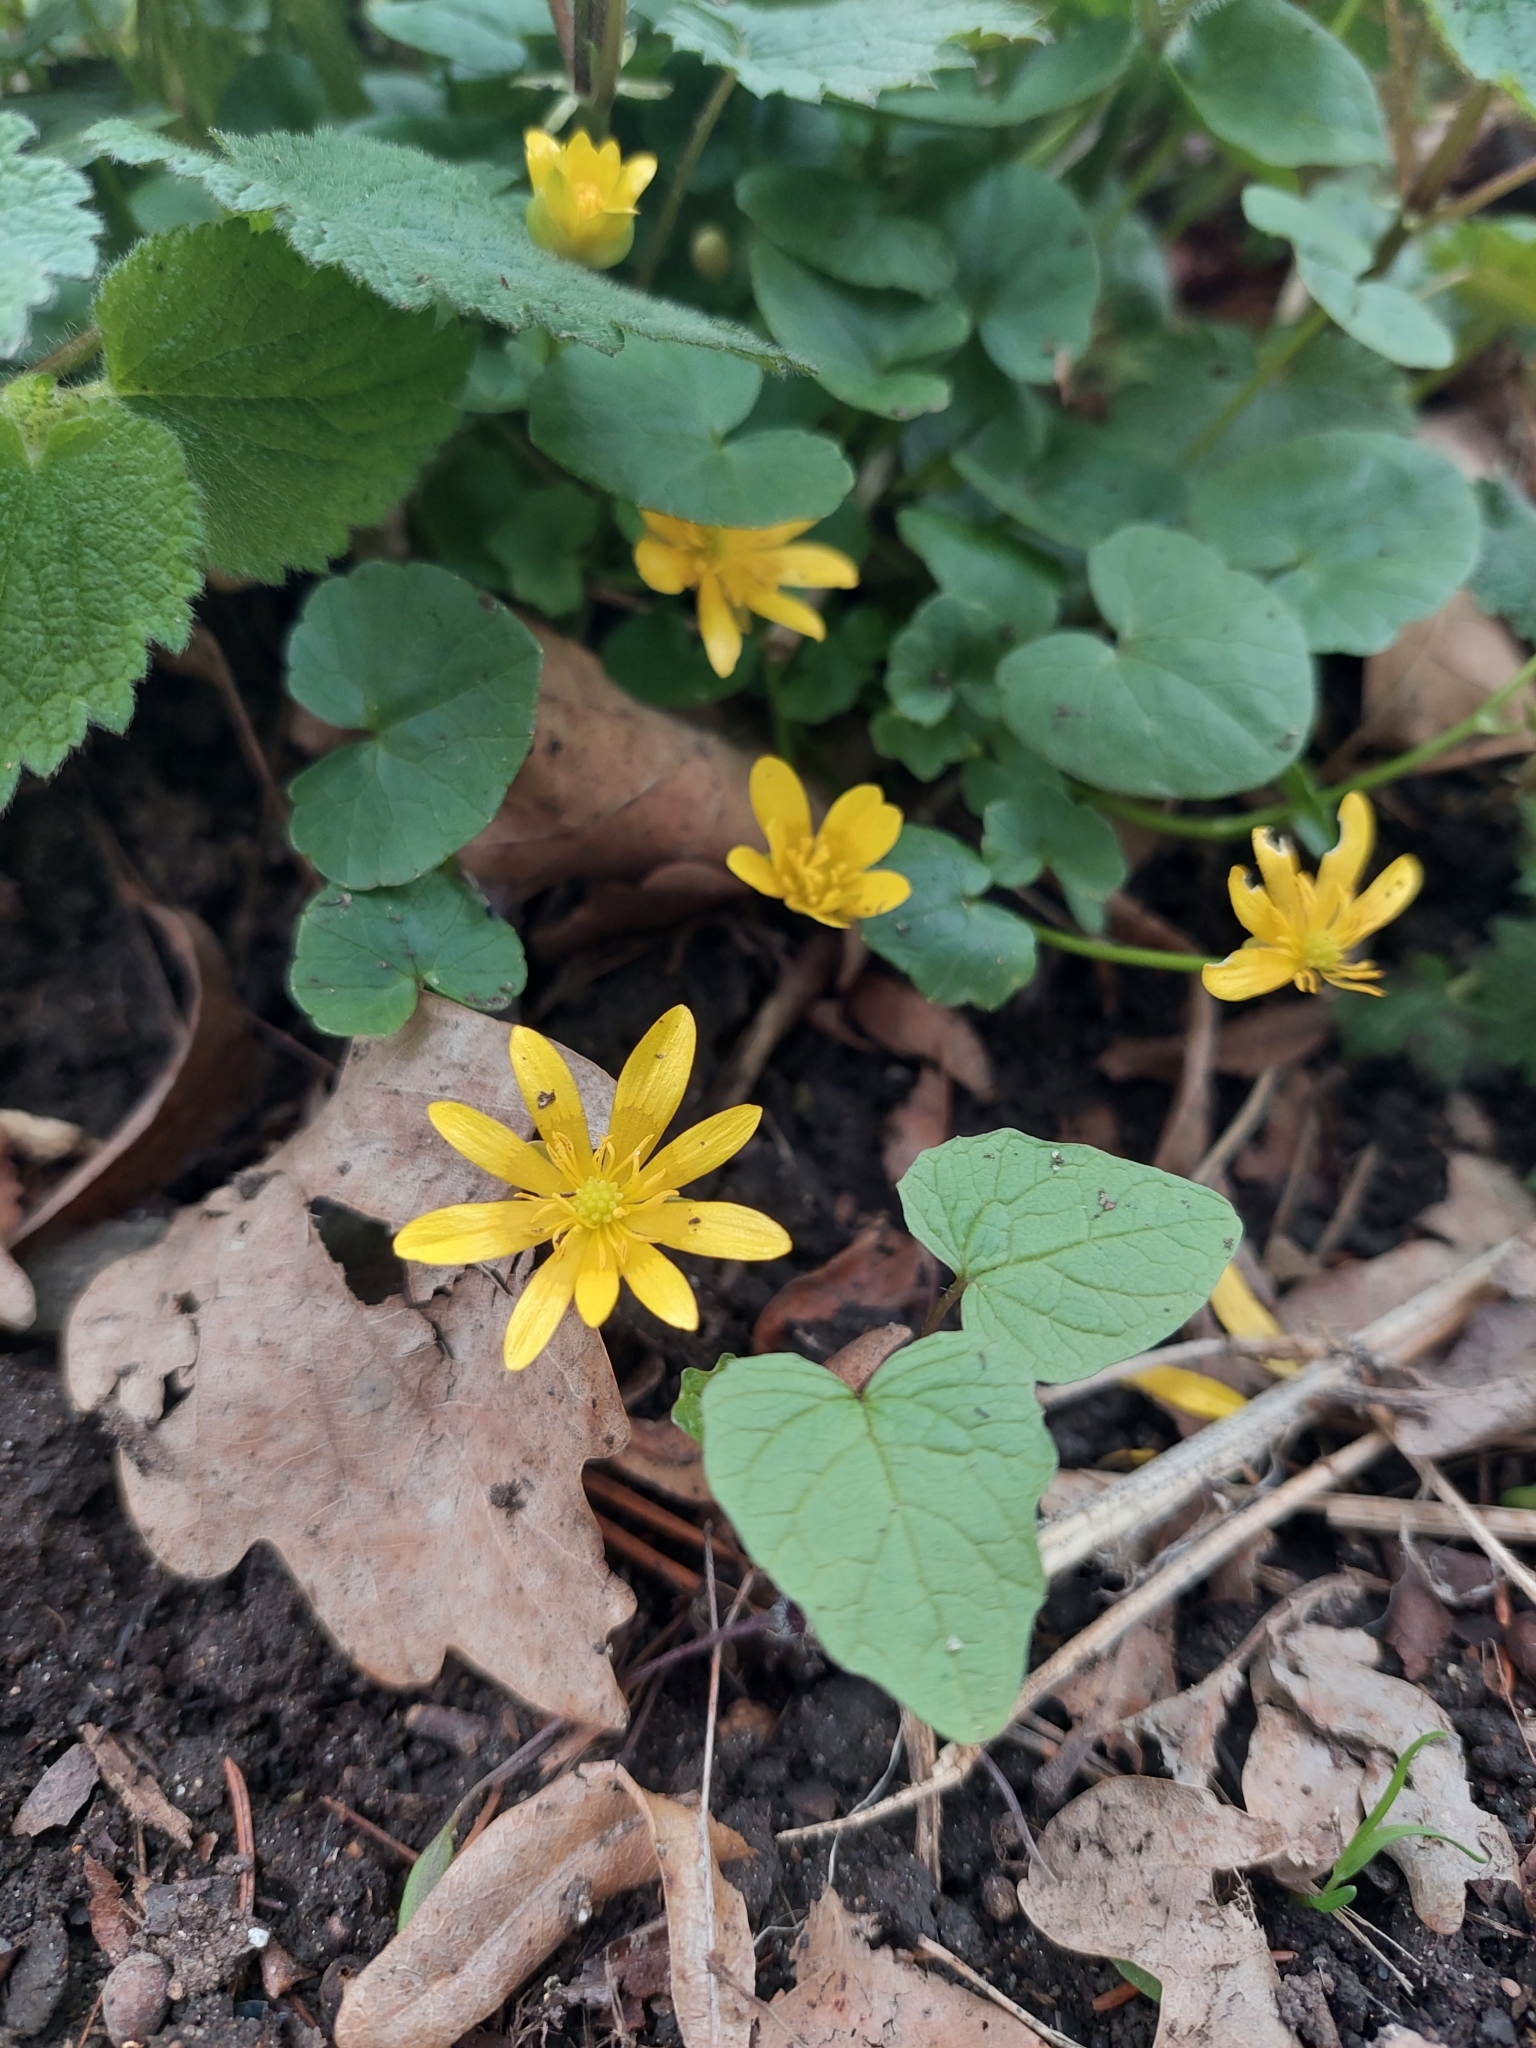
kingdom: Plantae
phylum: Tracheophyta
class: Magnoliopsida
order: Ranunculales
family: Ranunculaceae
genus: Ficaria
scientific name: Ficaria verna
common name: Lesser celandine
